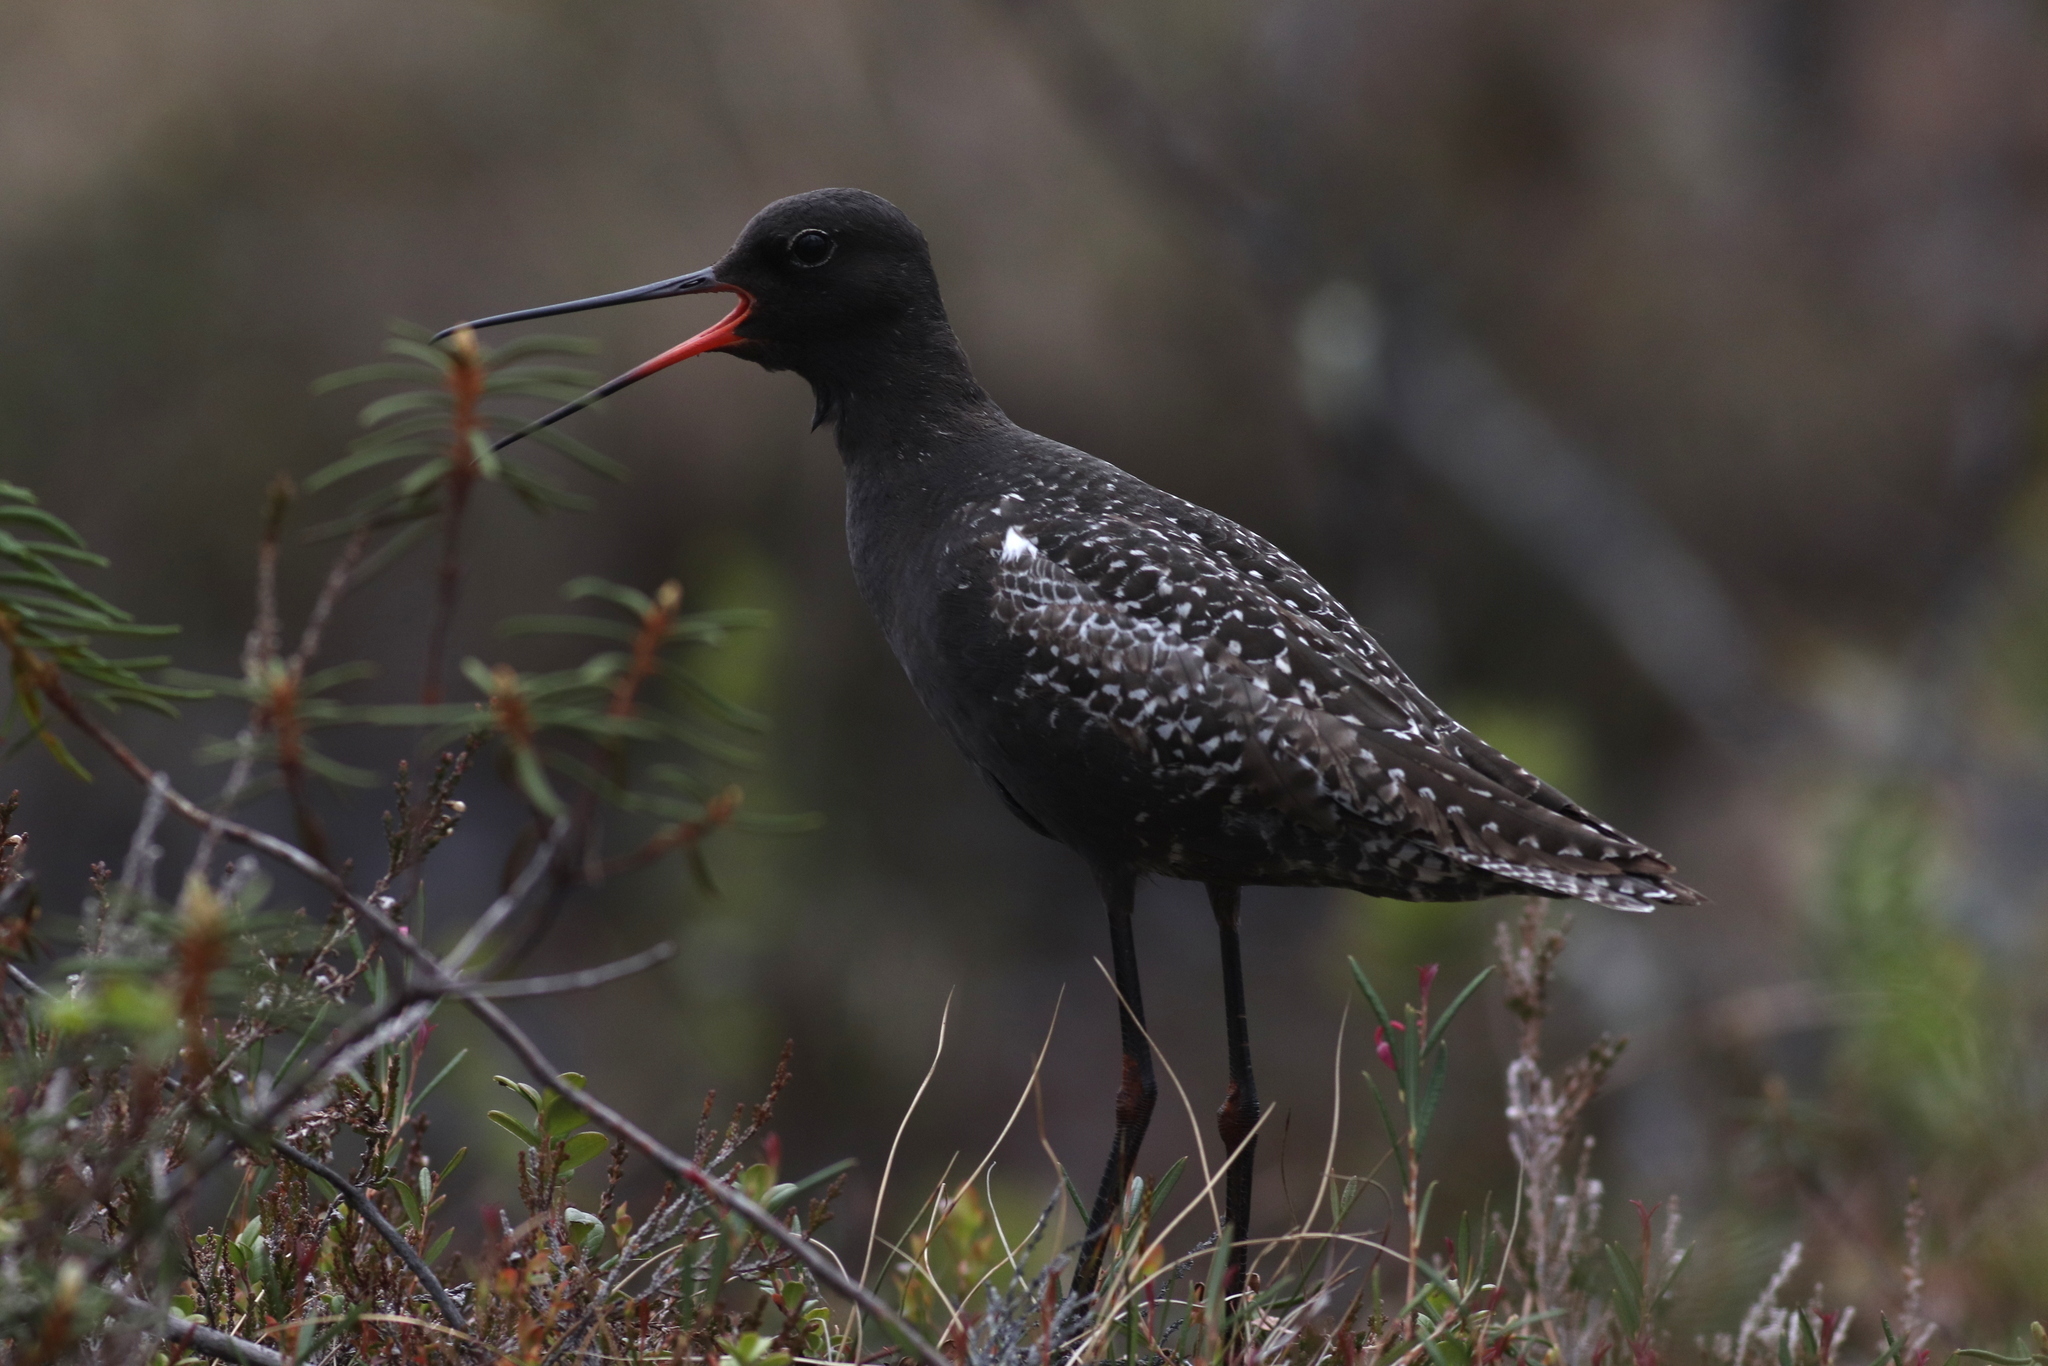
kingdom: Animalia
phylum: Chordata
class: Aves
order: Charadriiformes
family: Scolopacidae
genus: Tringa
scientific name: Tringa erythropus
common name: Spotted redshank
